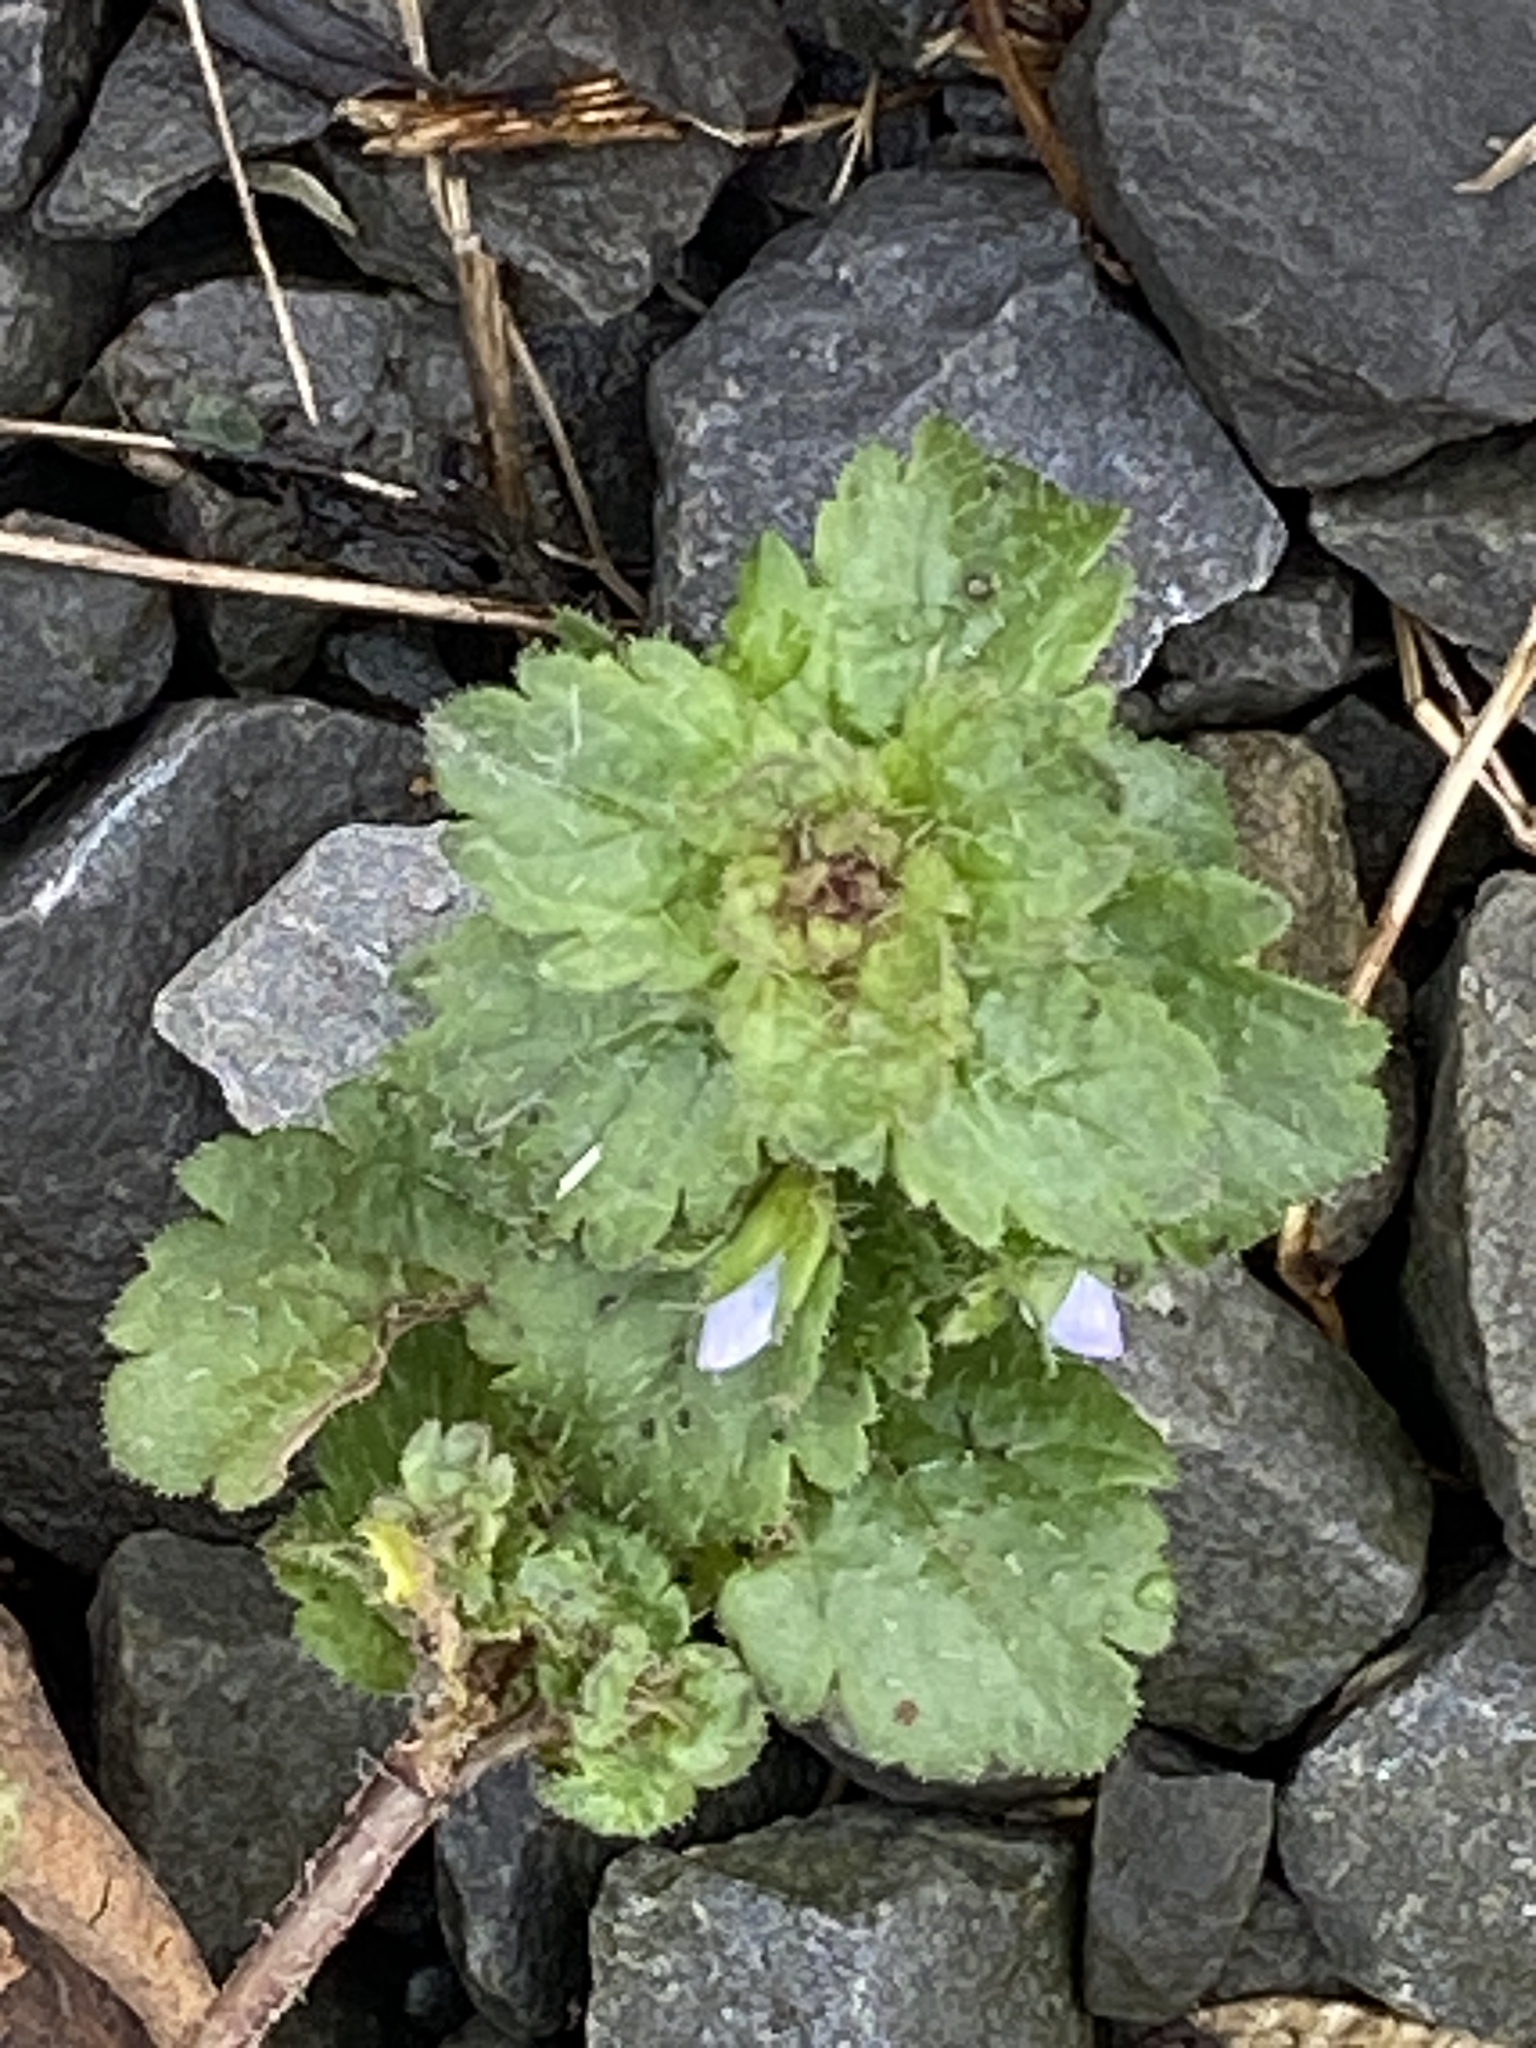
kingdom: Plantae
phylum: Tracheophyta
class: Magnoliopsida
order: Lamiales
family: Plantaginaceae
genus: Veronica
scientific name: Veronica persica
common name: Common field-speedwell
